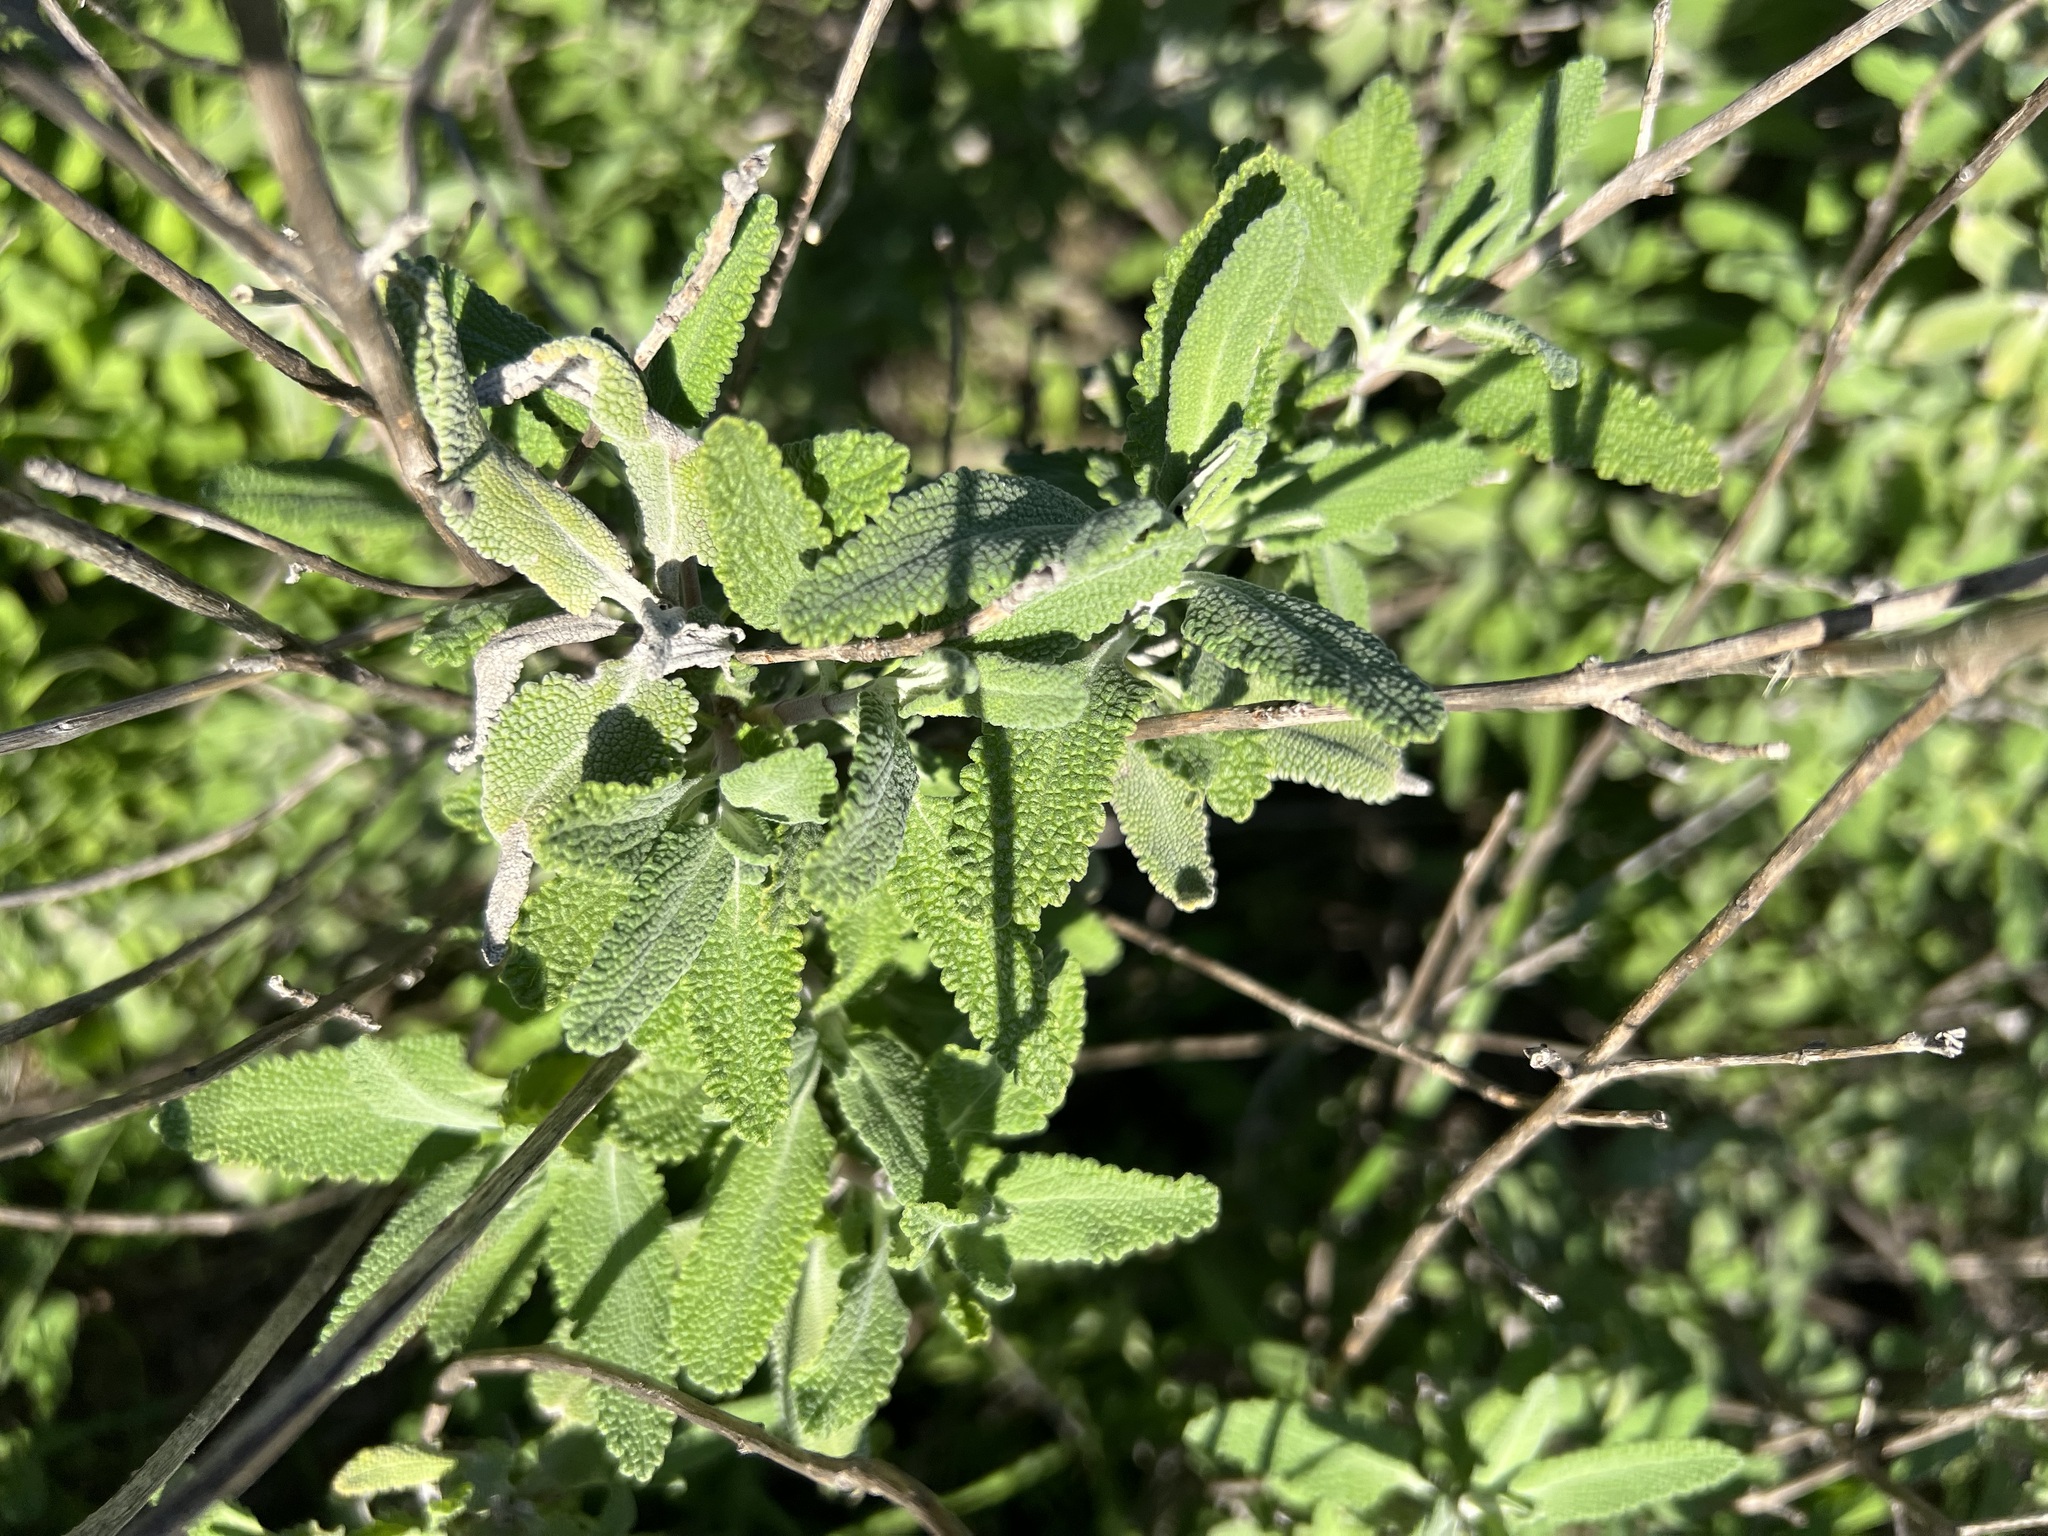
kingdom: Plantae
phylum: Tracheophyta
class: Magnoliopsida
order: Lamiales
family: Lamiaceae
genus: Salvia
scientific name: Salvia leucophylla
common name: Purple sage
